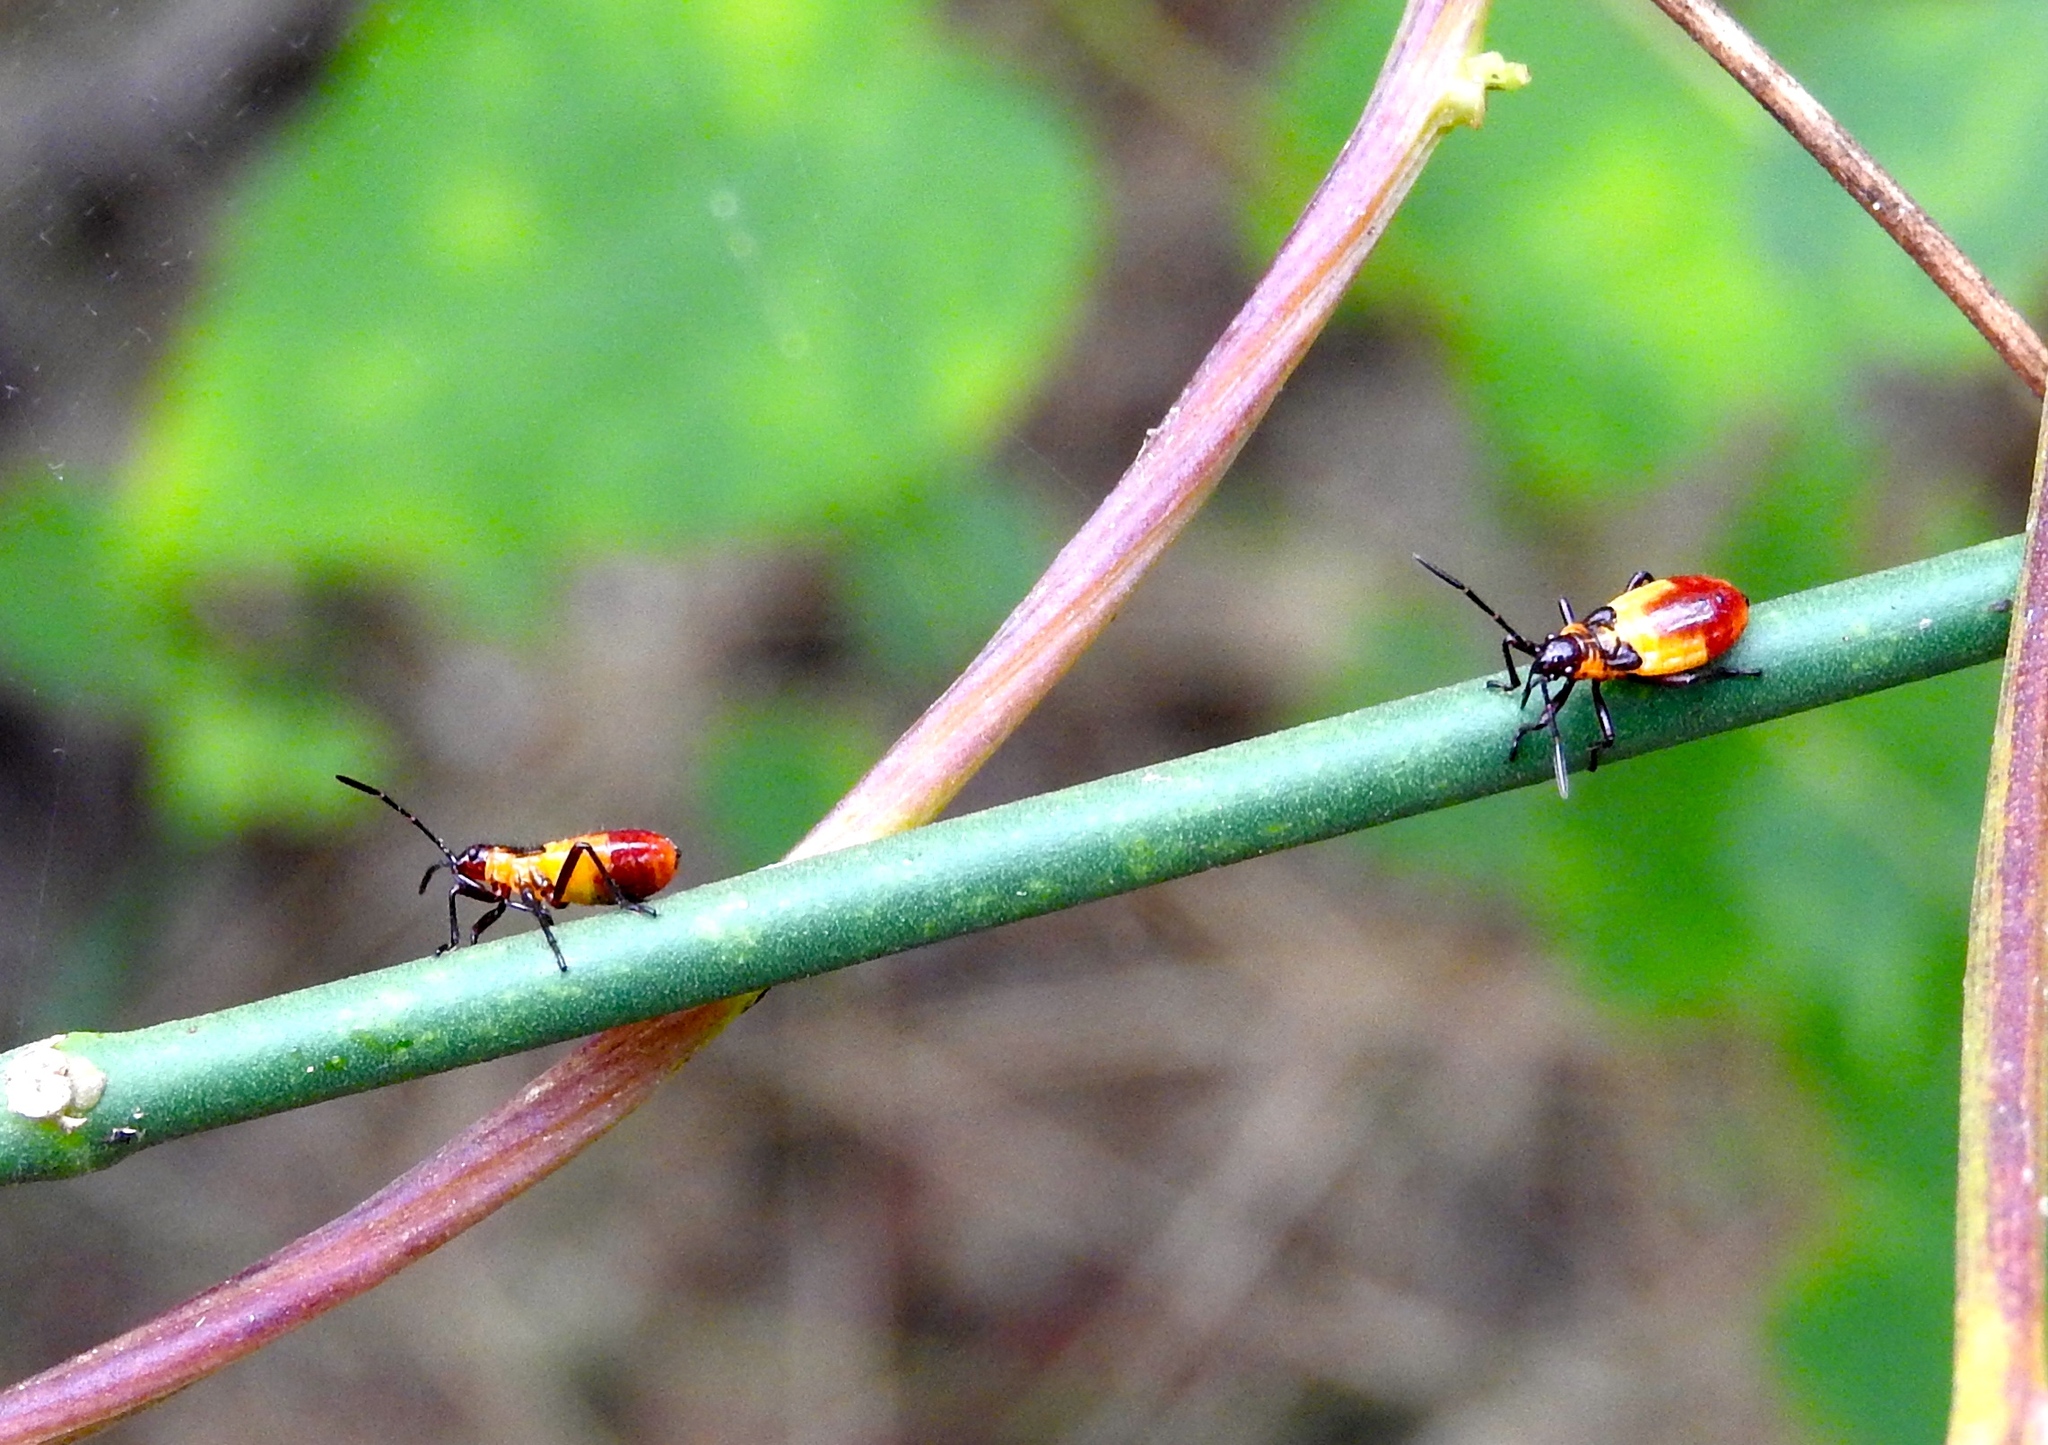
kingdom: Animalia
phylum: Arthropoda
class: Insecta
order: Hemiptera
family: Lygaeidae
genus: Oncopeltus
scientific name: Oncopeltus
